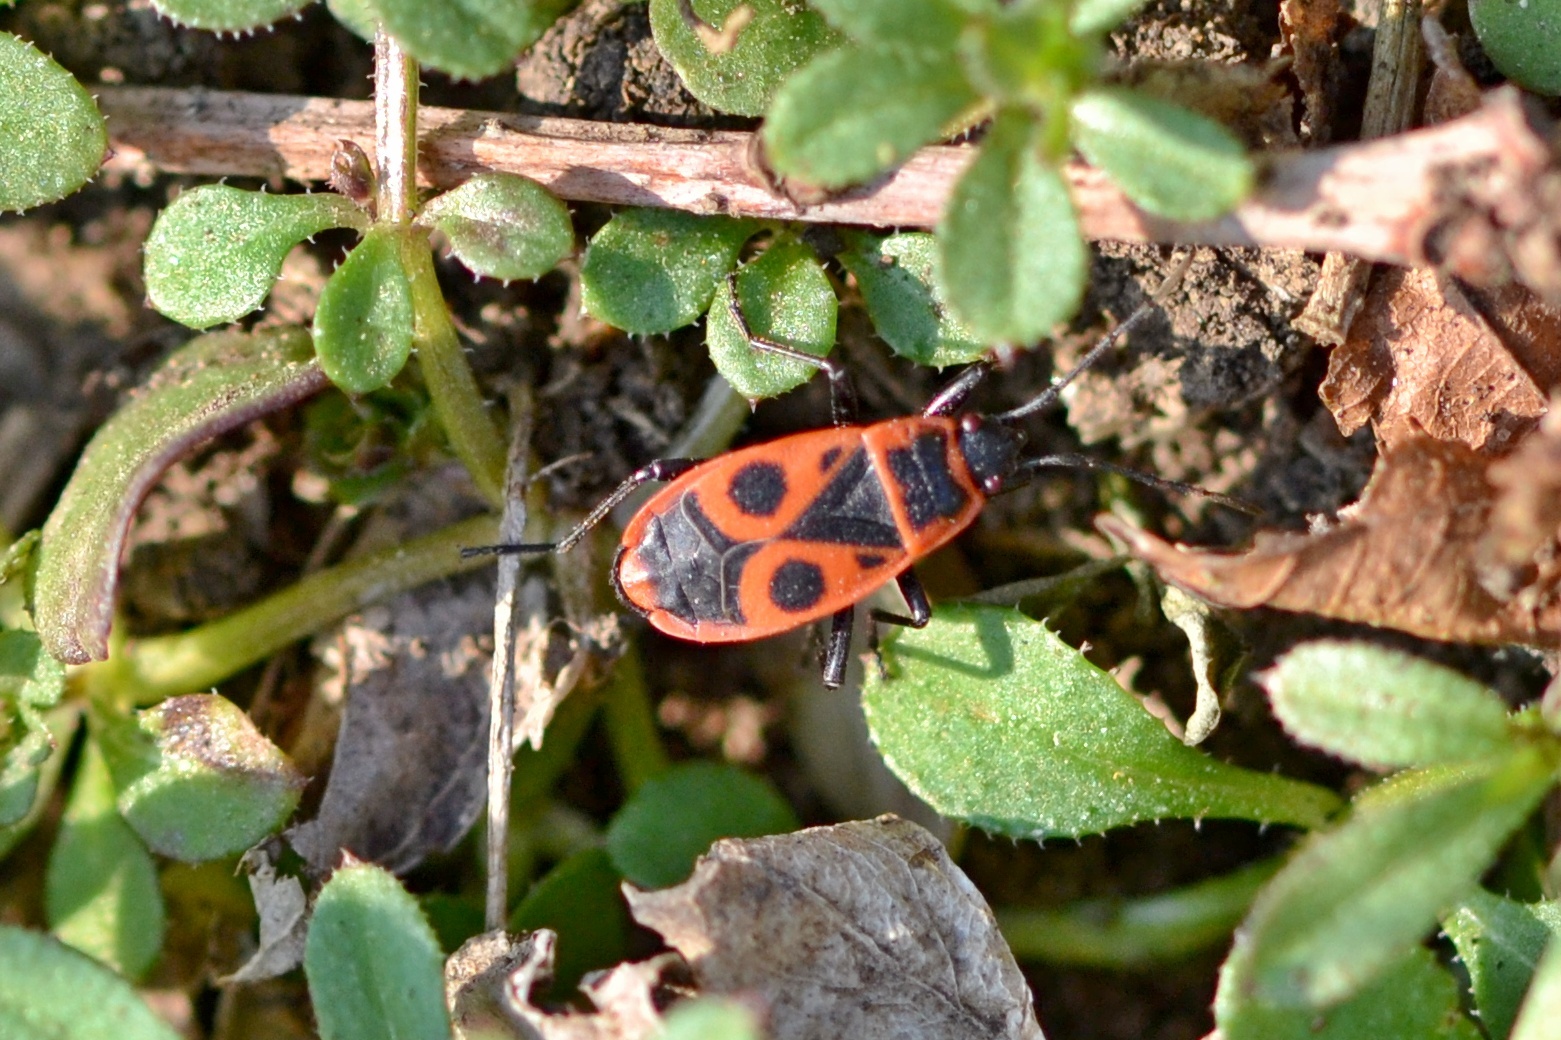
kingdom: Animalia
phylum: Arthropoda
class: Insecta
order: Hemiptera
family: Pyrrhocoridae
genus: Pyrrhocoris
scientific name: Pyrrhocoris apterus
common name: Firebug
